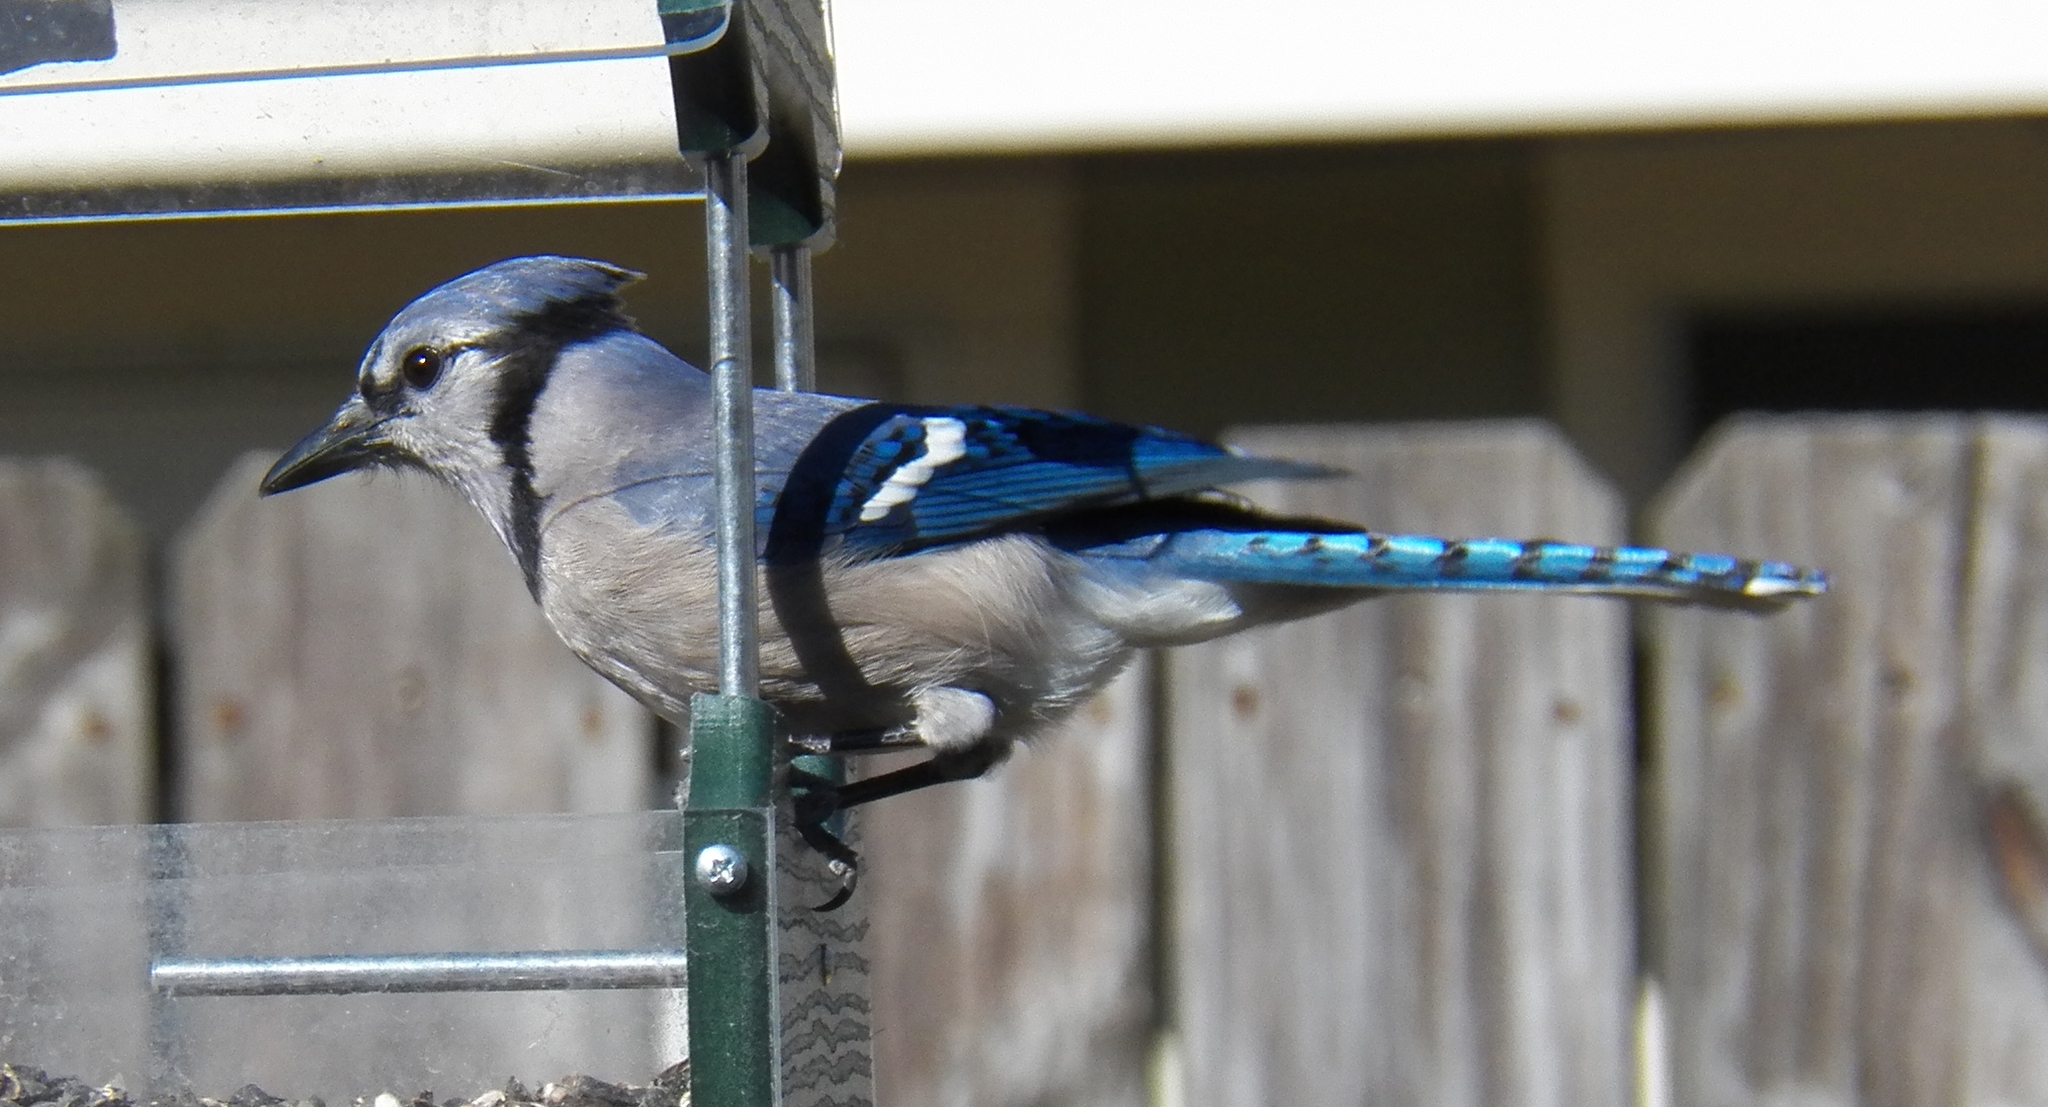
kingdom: Animalia
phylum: Chordata
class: Aves
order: Passeriformes
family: Corvidae
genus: Cyanocitta
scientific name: Cyanocitta cristata
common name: Blue jay
